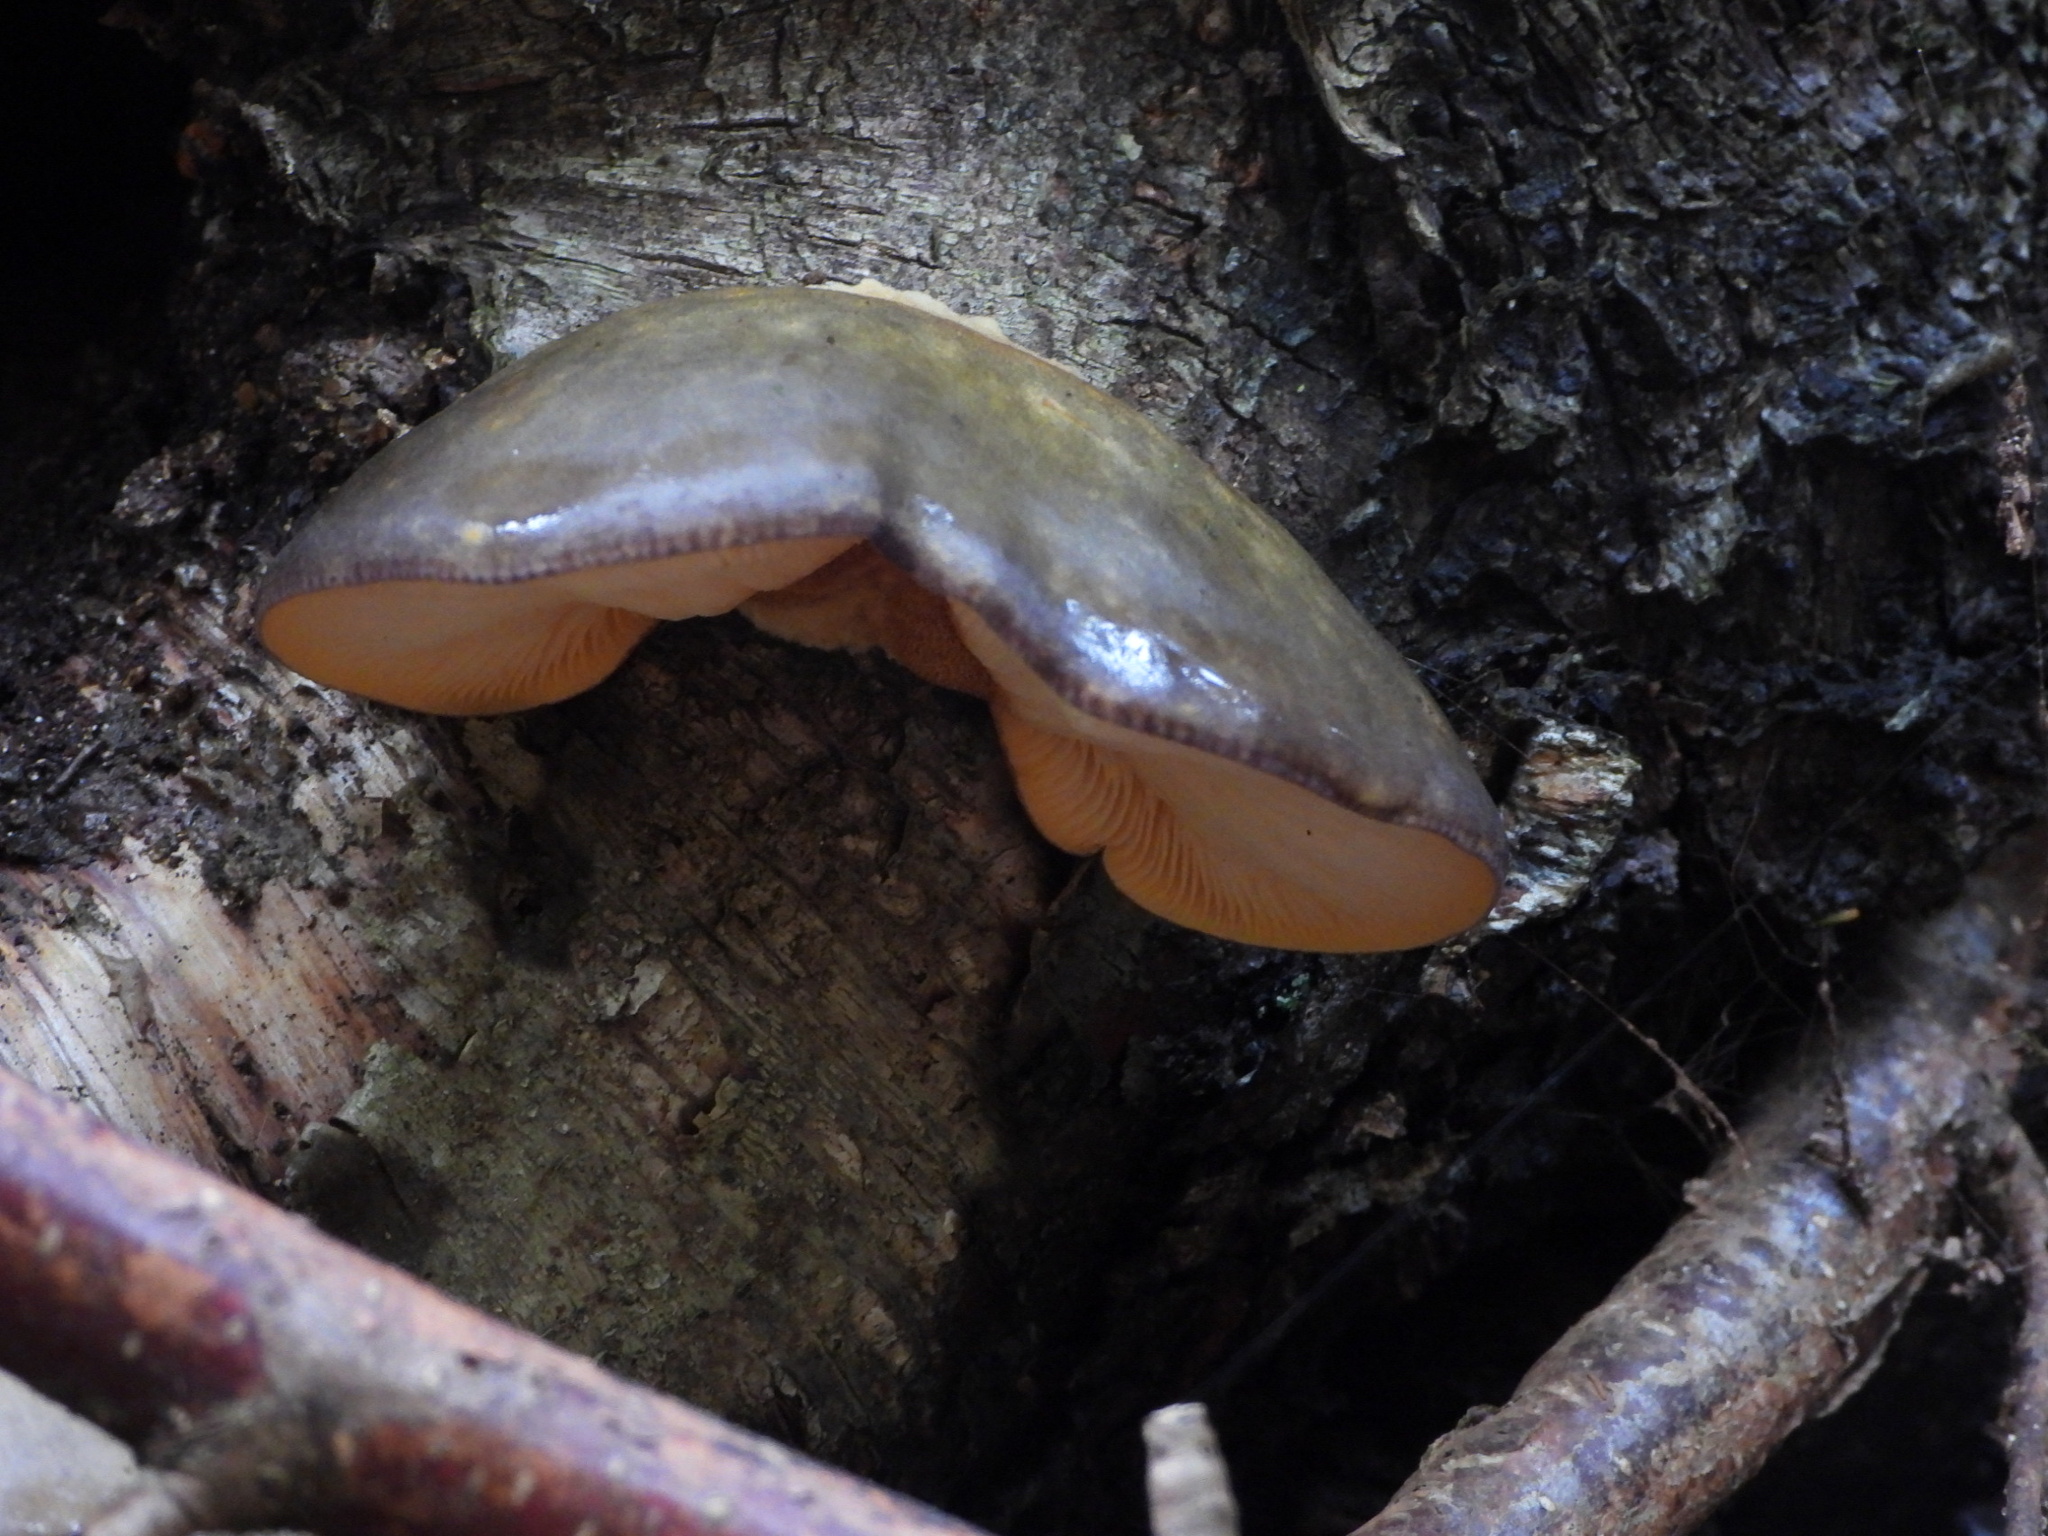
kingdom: Fungi
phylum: Basidiomycota
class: Agaricomycetes
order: Agaricales
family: Sarcomyxaceae
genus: Sarcomyxa
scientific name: Sarcomyxa serotina
